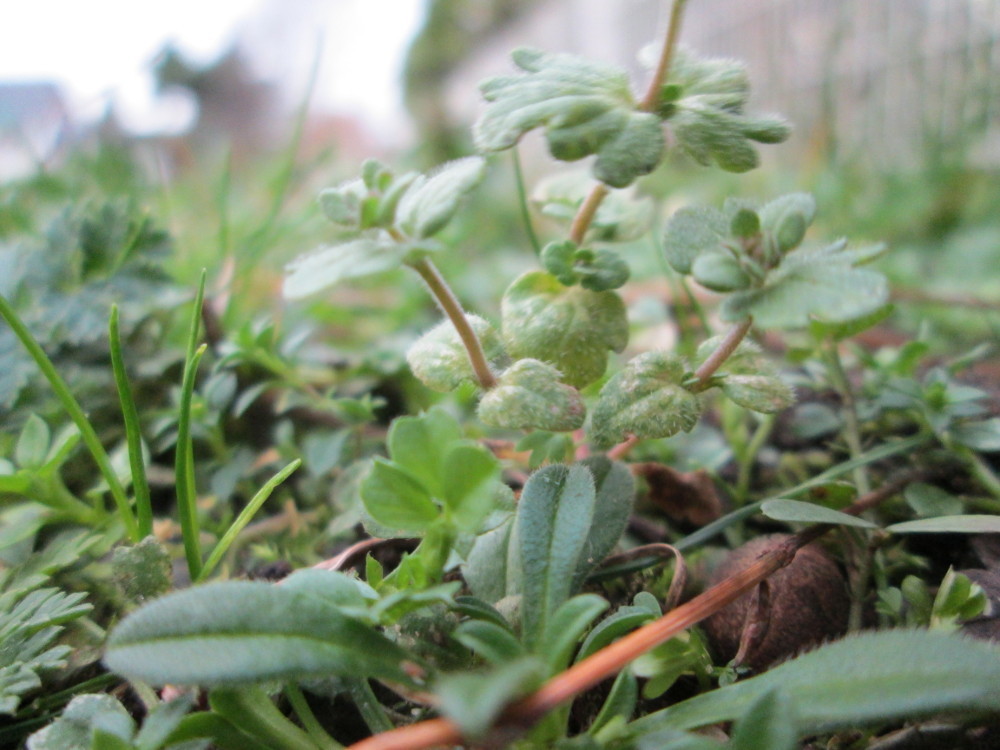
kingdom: Plantae
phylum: Tracheophyta
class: Magnoliopsida
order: Lamiales
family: Plantaginaceae
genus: Veronica
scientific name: Veronica triphyllos
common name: Fingered speedwell
